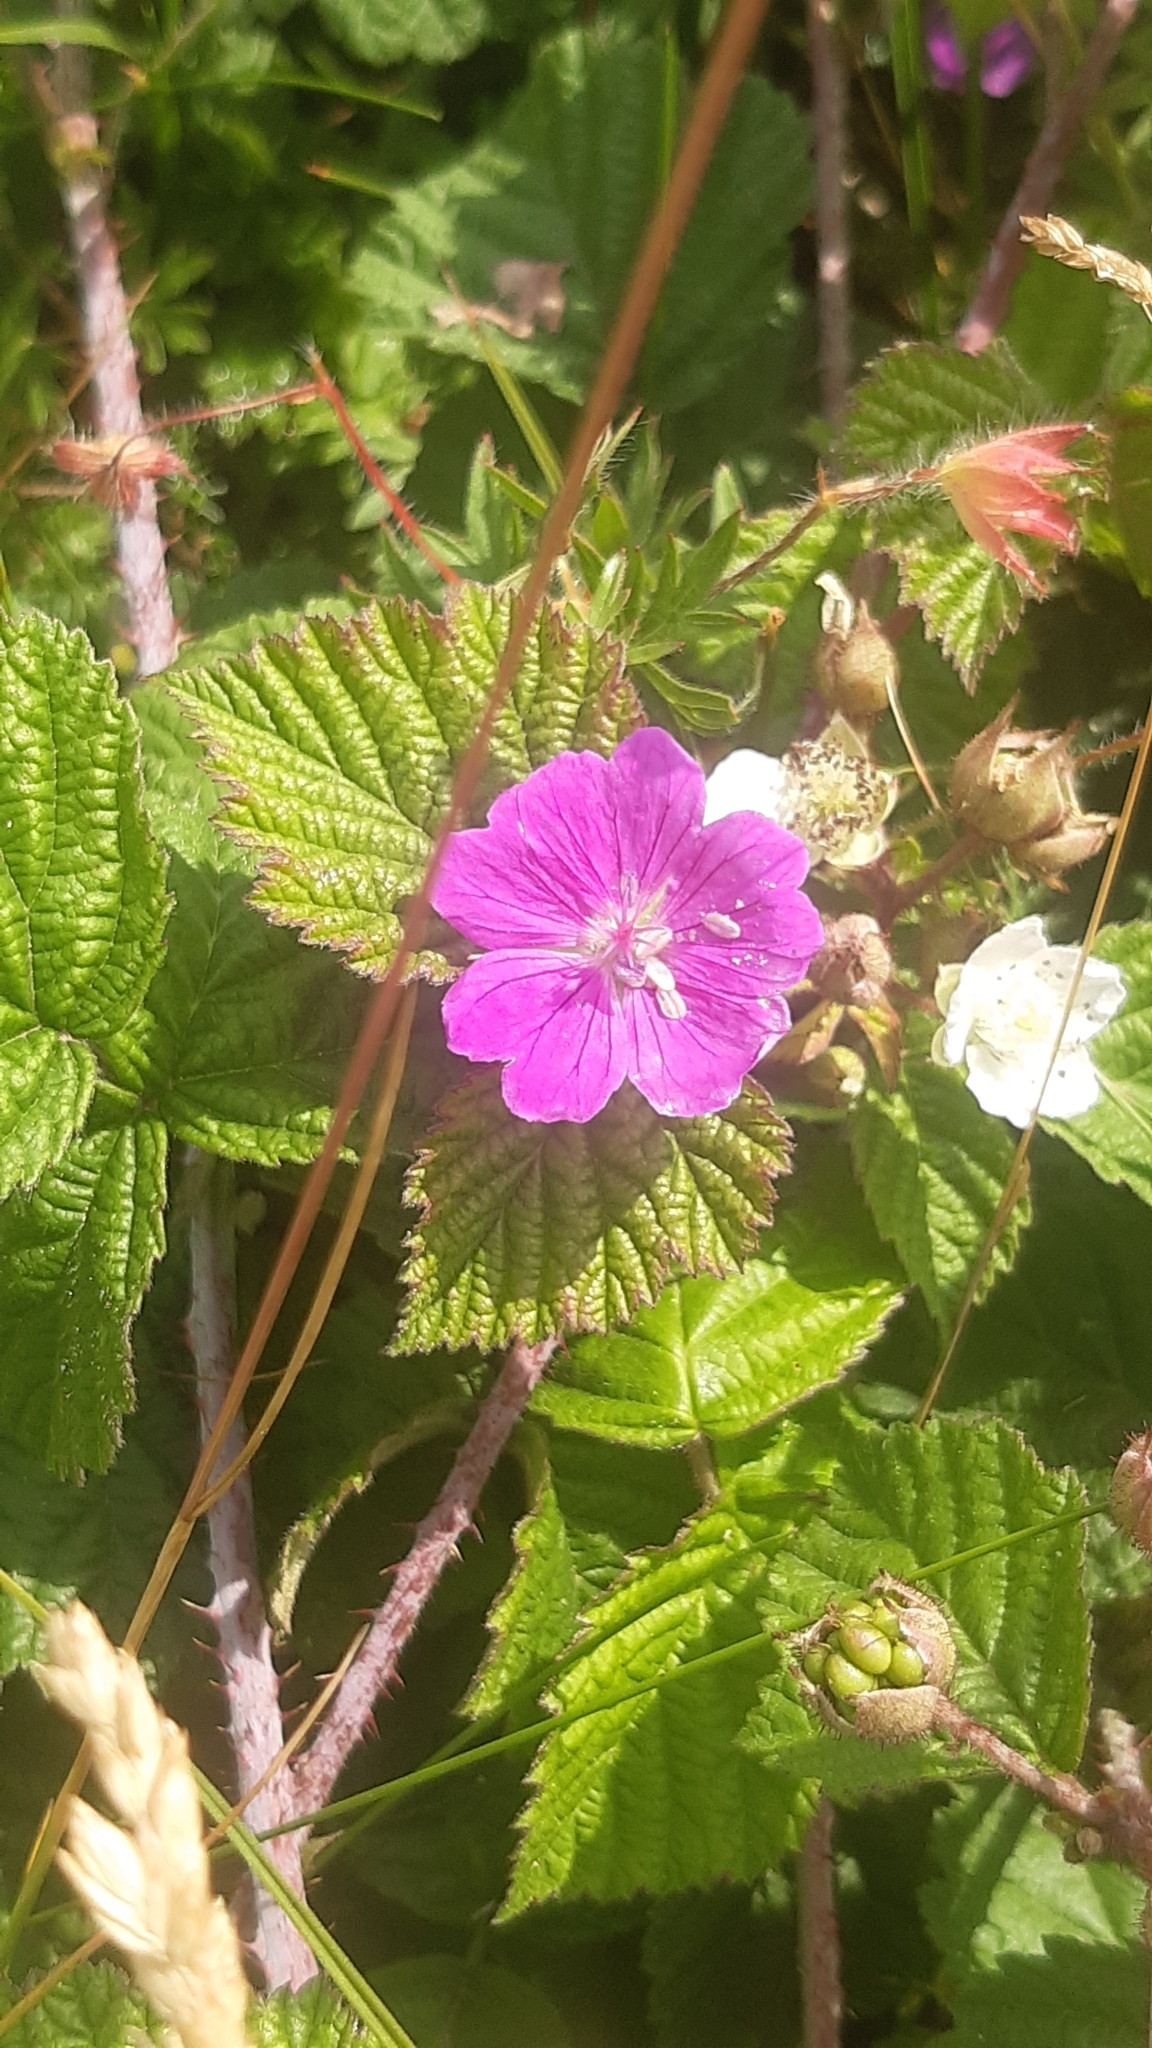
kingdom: Plantae
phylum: Tracheophyta
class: Magnoliopsida
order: Geraniales
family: Geraniaceae
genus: Geranium
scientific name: Geranium sanguineum
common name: Bloody crane's-bill
